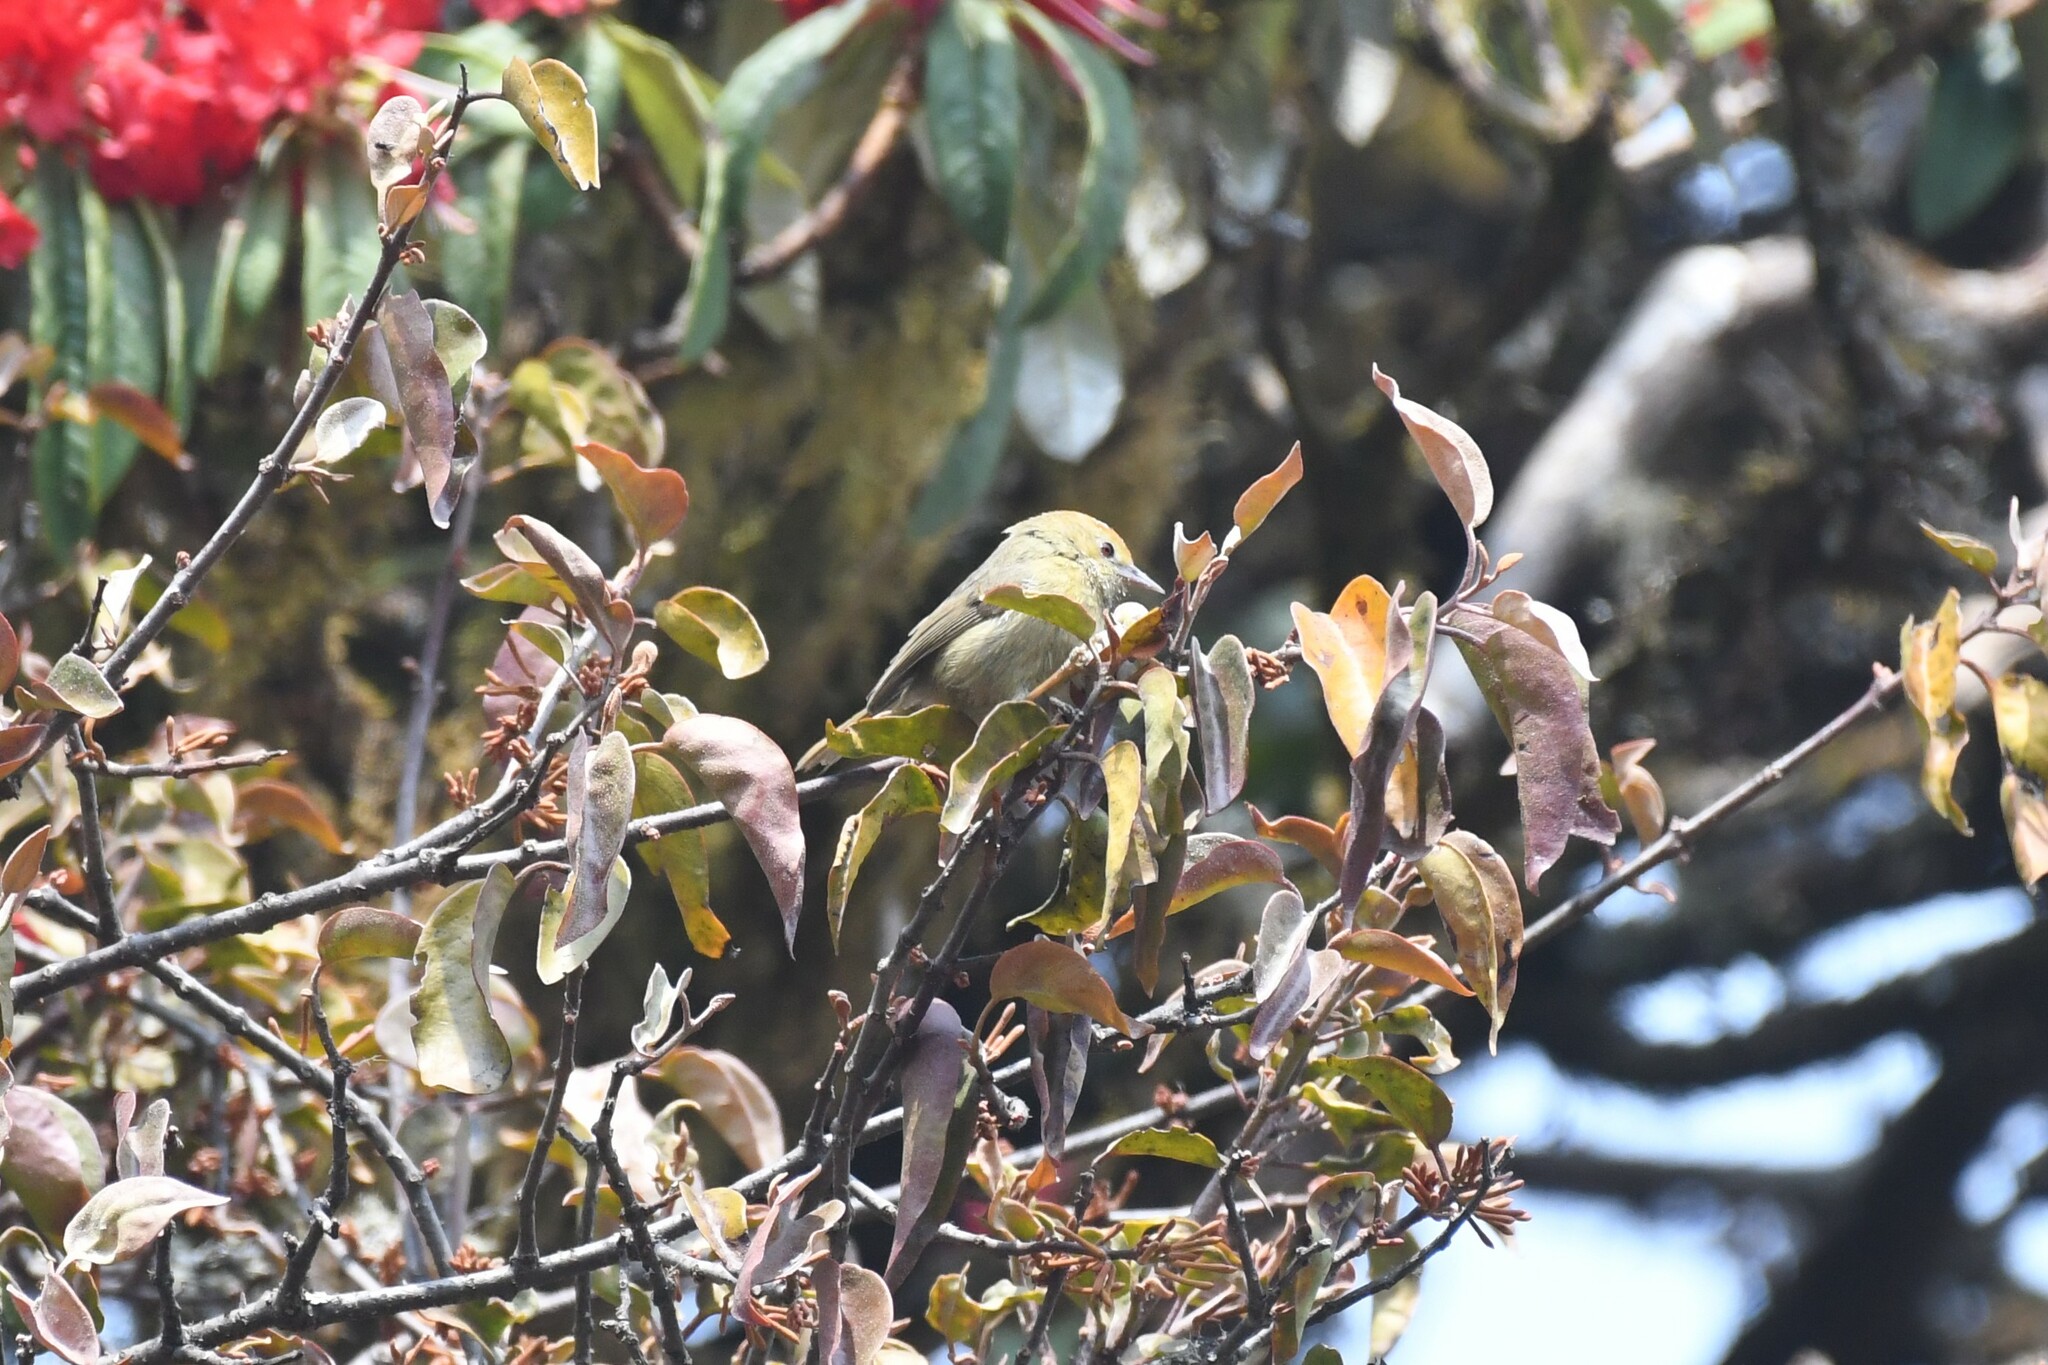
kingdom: Animalia
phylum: Chordata
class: Aves
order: Passeriformes
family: Timaliidae
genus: Stachyridopsis
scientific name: Stachyridopsis ruficeps
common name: Rufous-capped babbler
